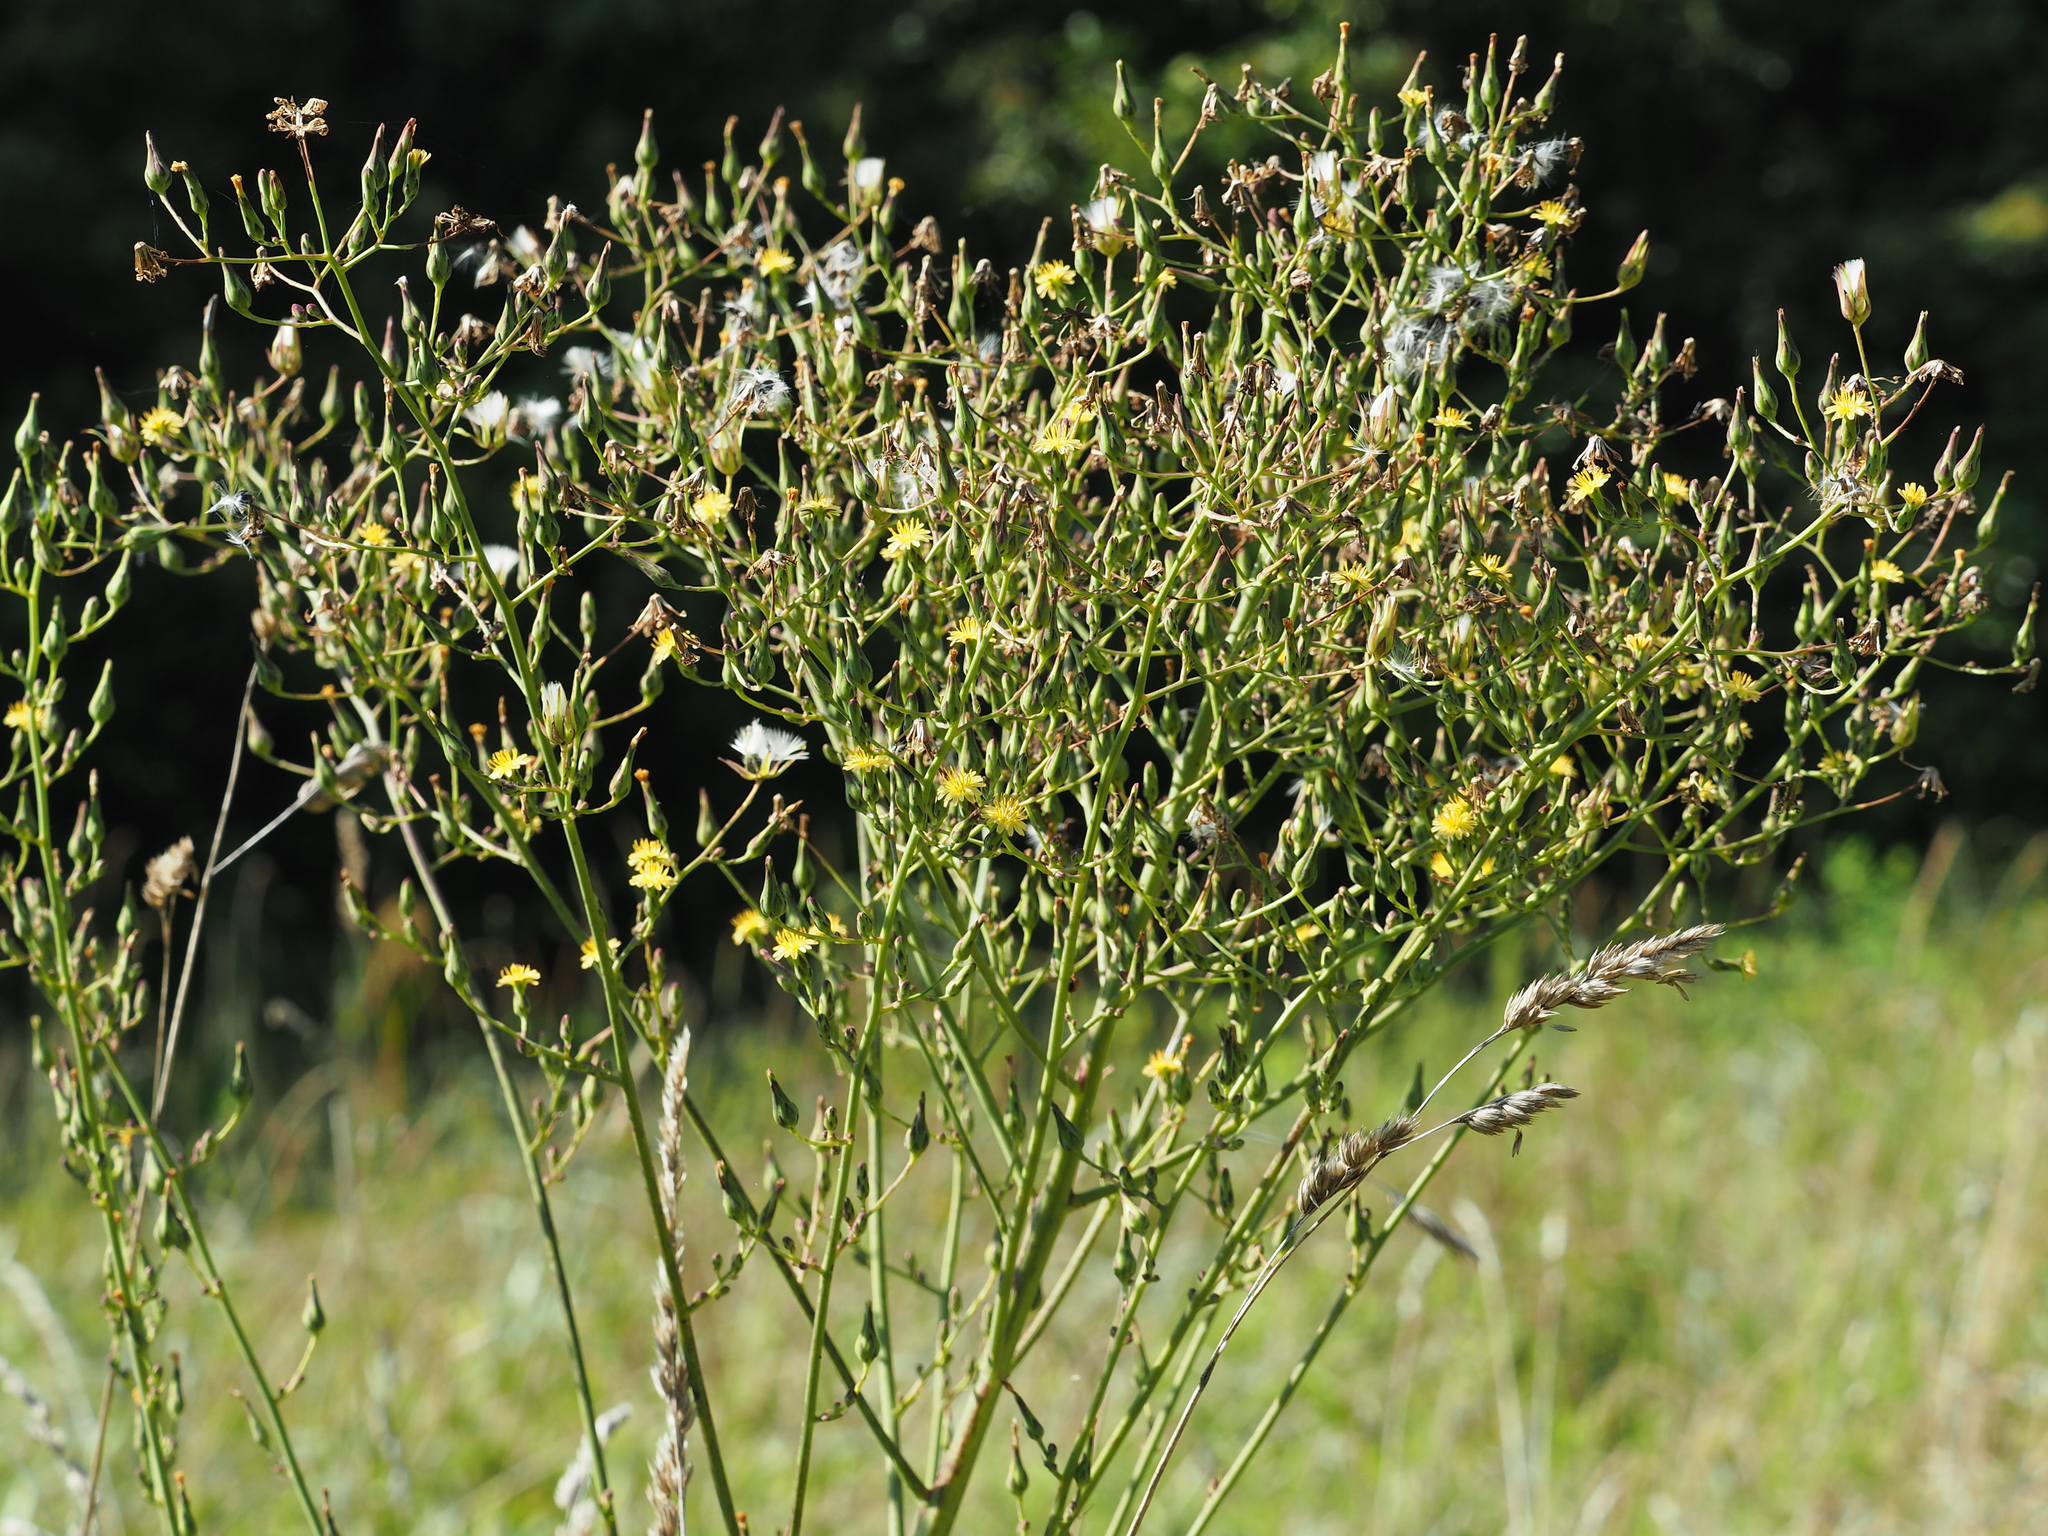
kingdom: Plantae
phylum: Tracheophyta
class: Magnoliopsida
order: Asterales
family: Asteraceae
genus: Lactuca
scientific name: Lactuca canadensis
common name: Canada lettuce
